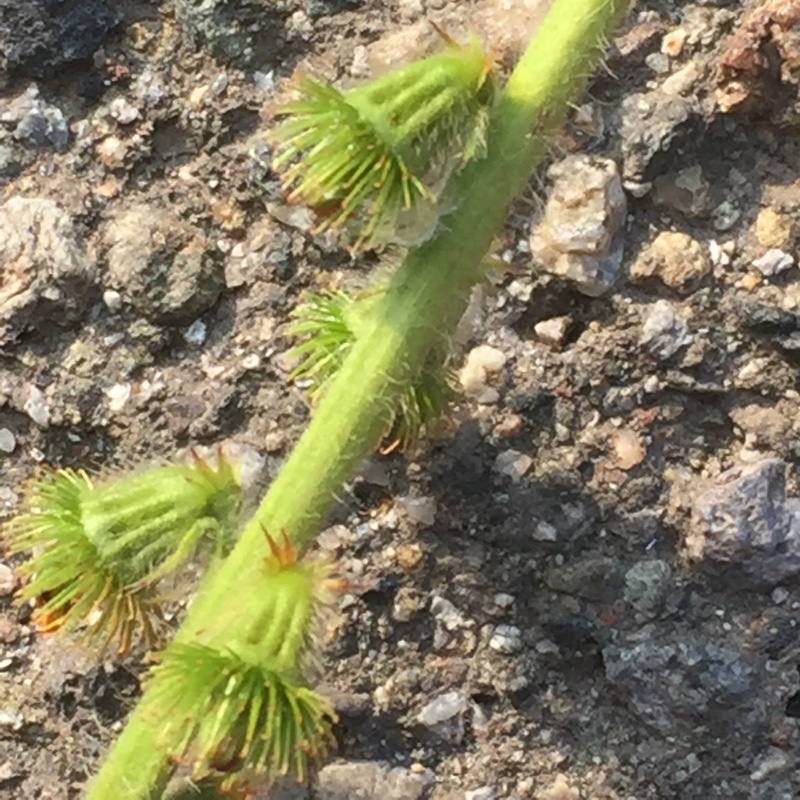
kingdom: Plantae
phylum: Tracheophyta
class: Magnoliopsida
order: Rosales
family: Rosaceae
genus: Agrimonia
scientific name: Agrimonia eupatoria
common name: Agrimony
